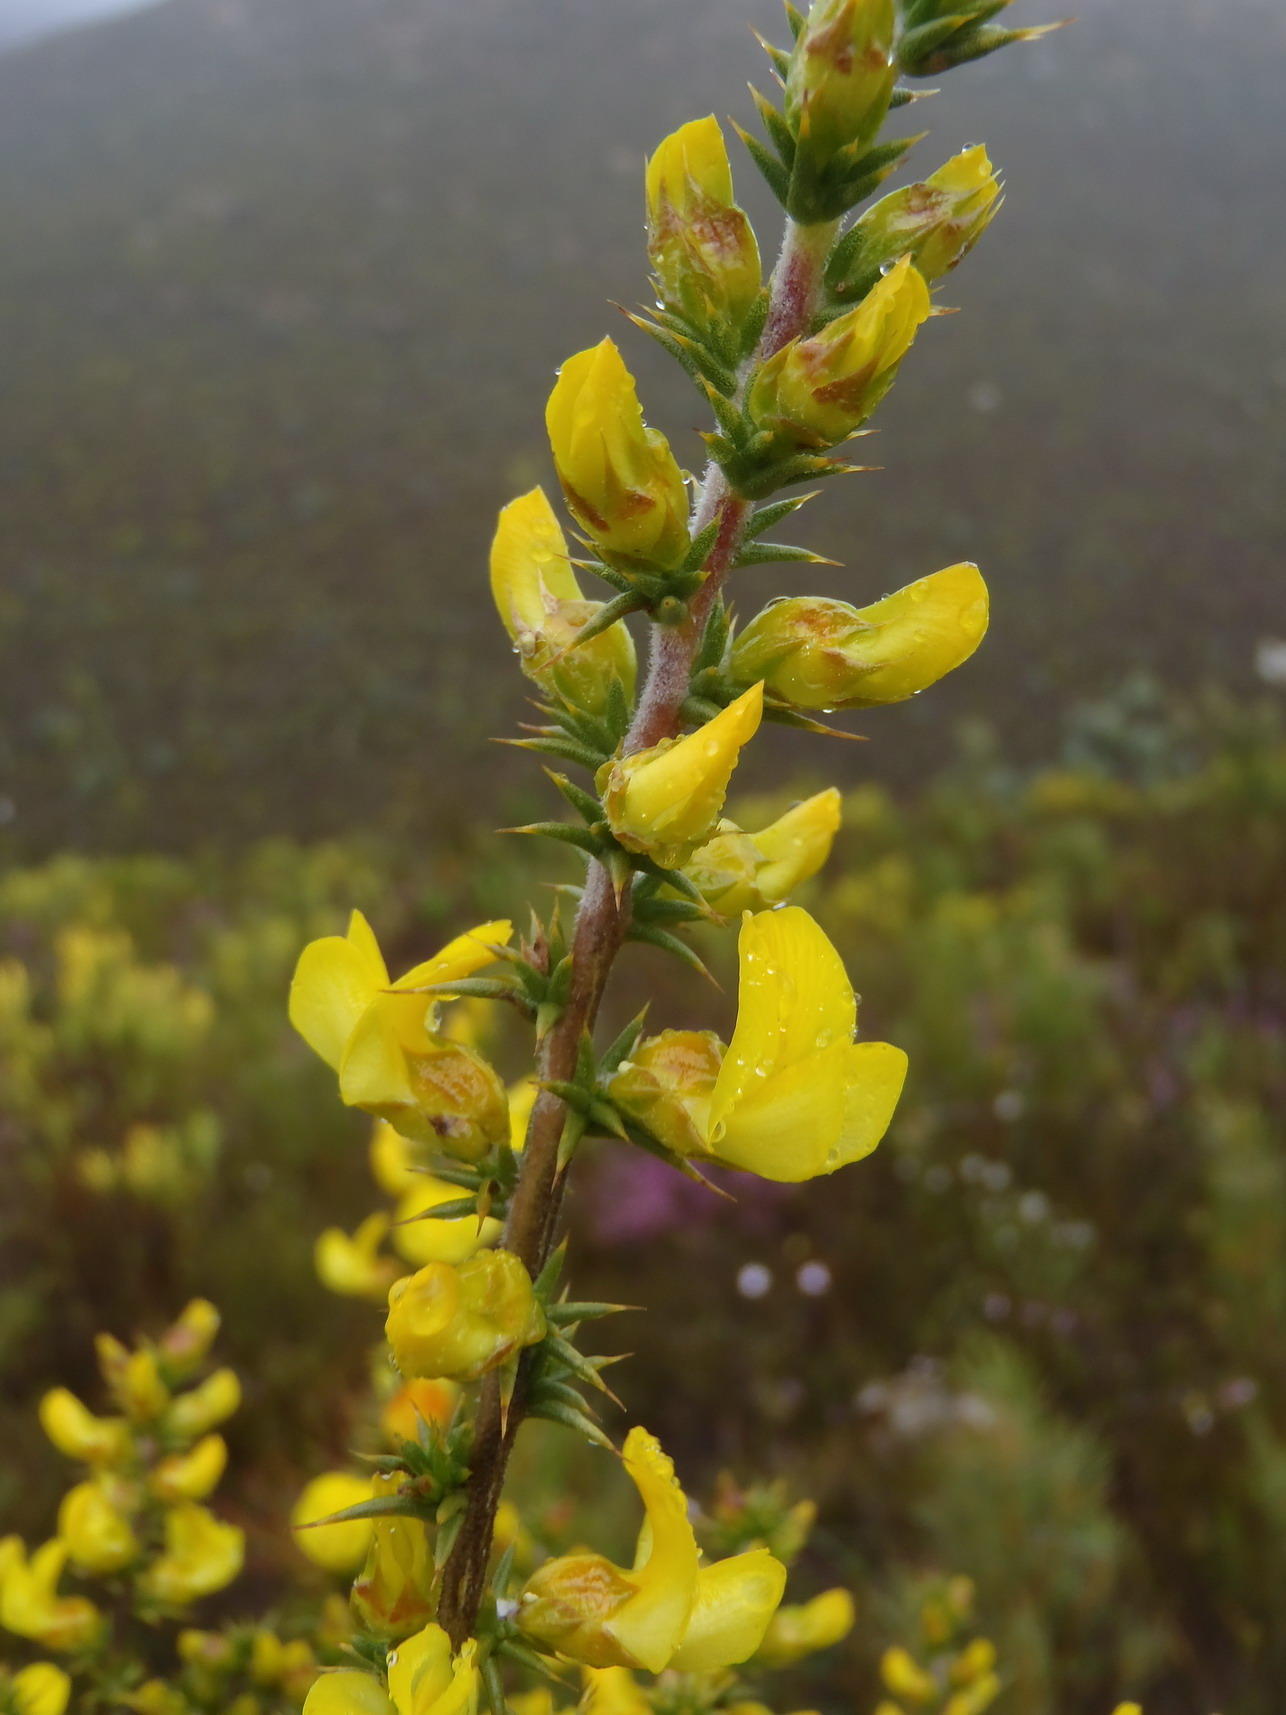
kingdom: Plantae
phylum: Tracheophyta
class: Magnoliopsida
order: Fabales
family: Fabaceae
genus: Aspalathus
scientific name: Aspalathus aciphylla
